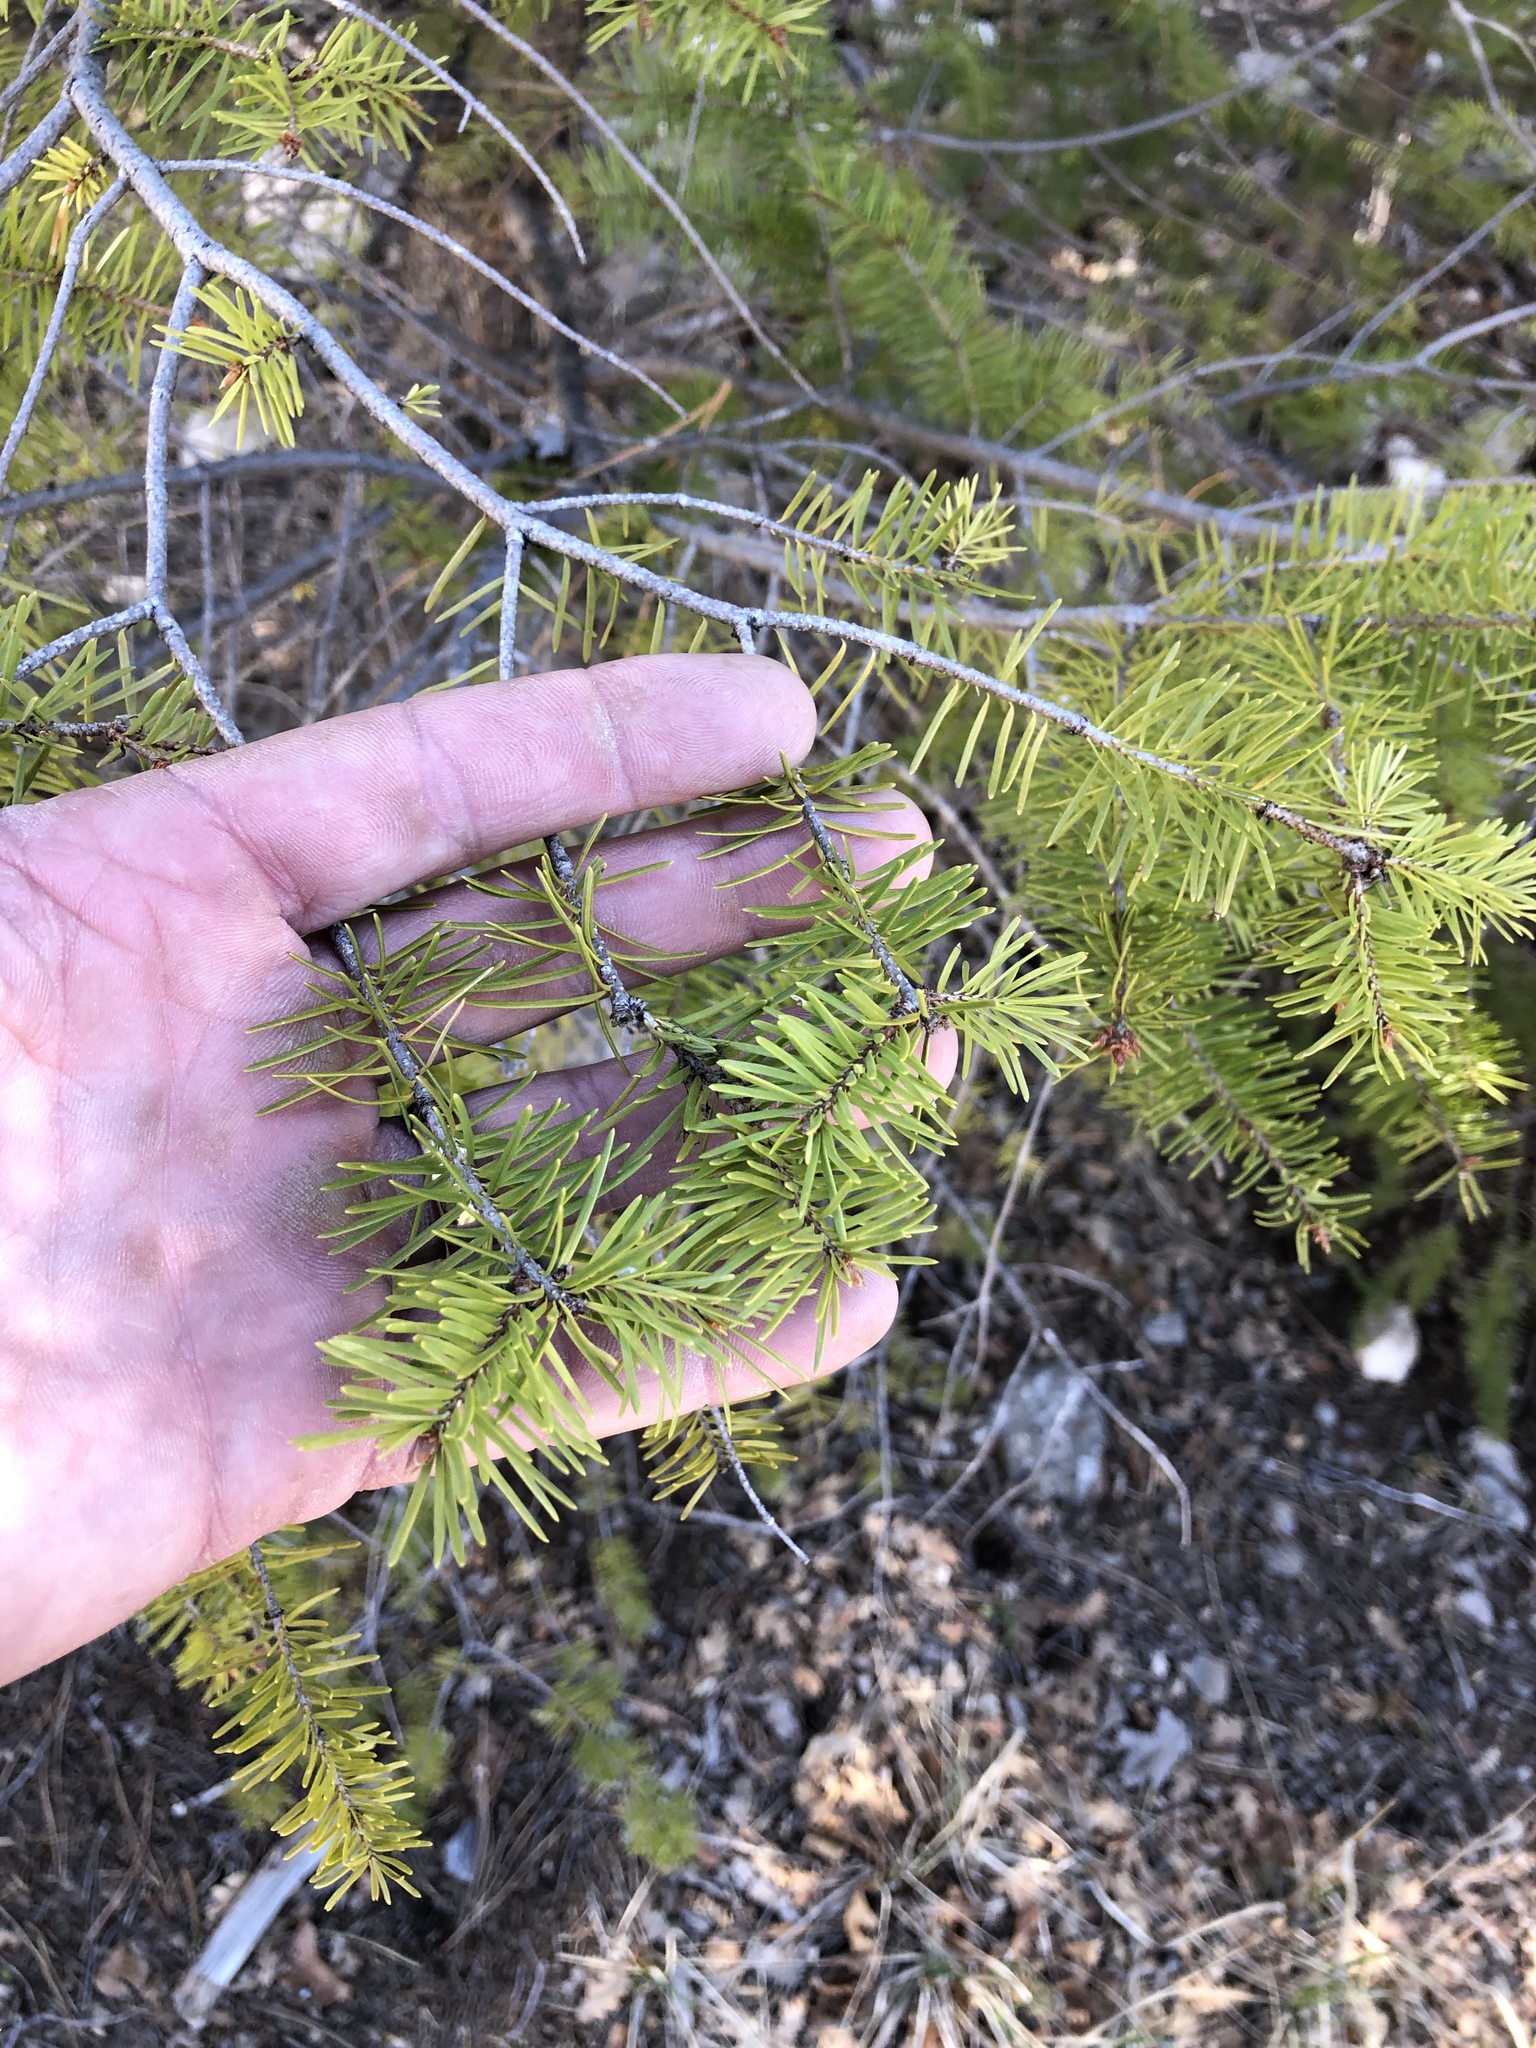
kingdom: Plantae
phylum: Tracheophyta
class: Pinopsida
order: Pinales
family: Pinaceae
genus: Pseudotsuga
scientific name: Pseudotsuga menziesii
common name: Douglas fir
